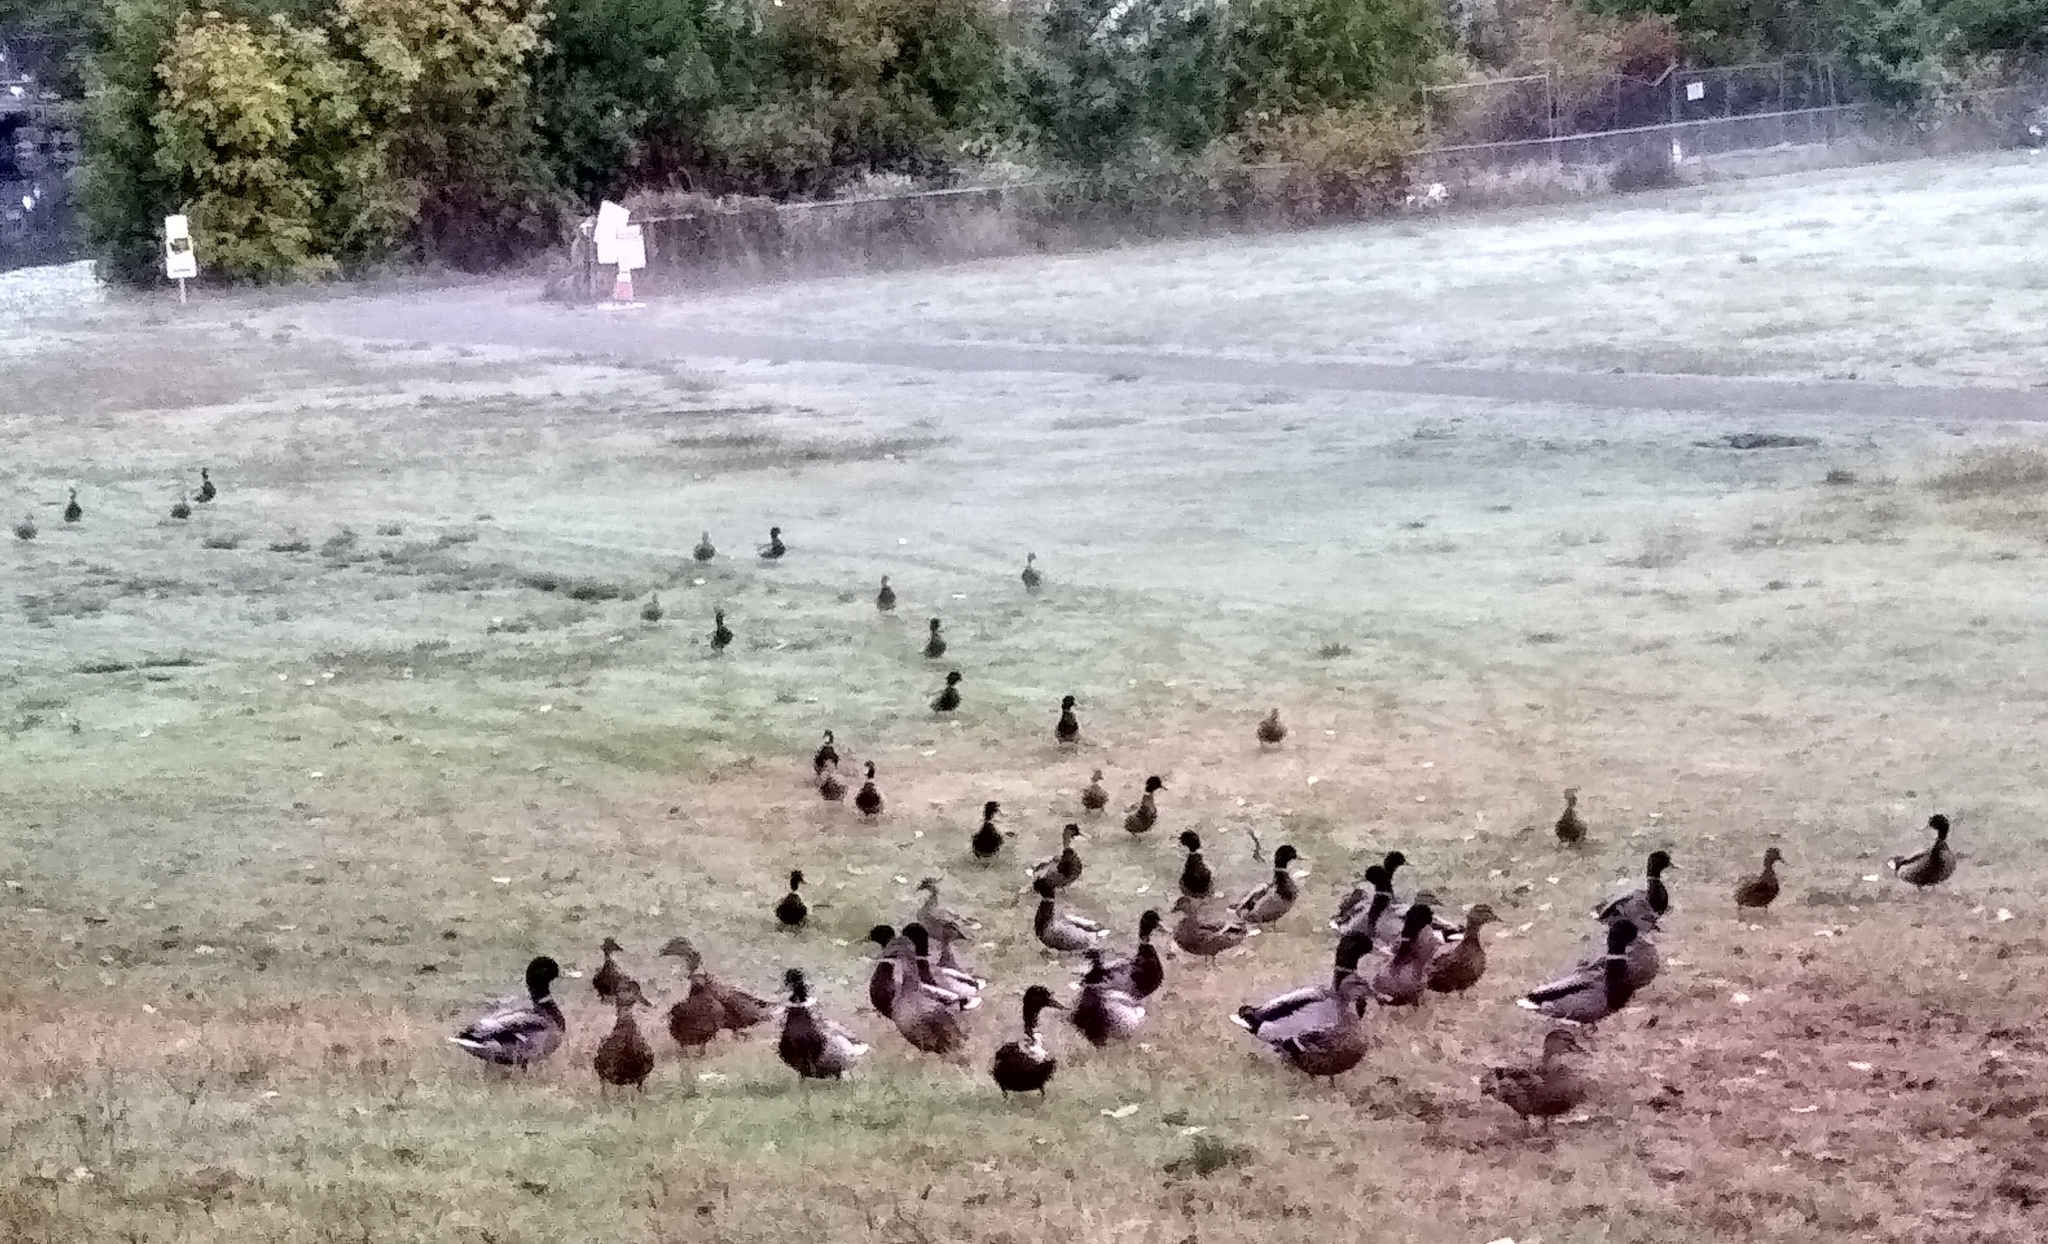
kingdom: Animalia
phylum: Chordata
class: Aves
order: Anseriformes
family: Anatidae
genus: Anas
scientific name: Anas platyrhynchos
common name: Mallard
